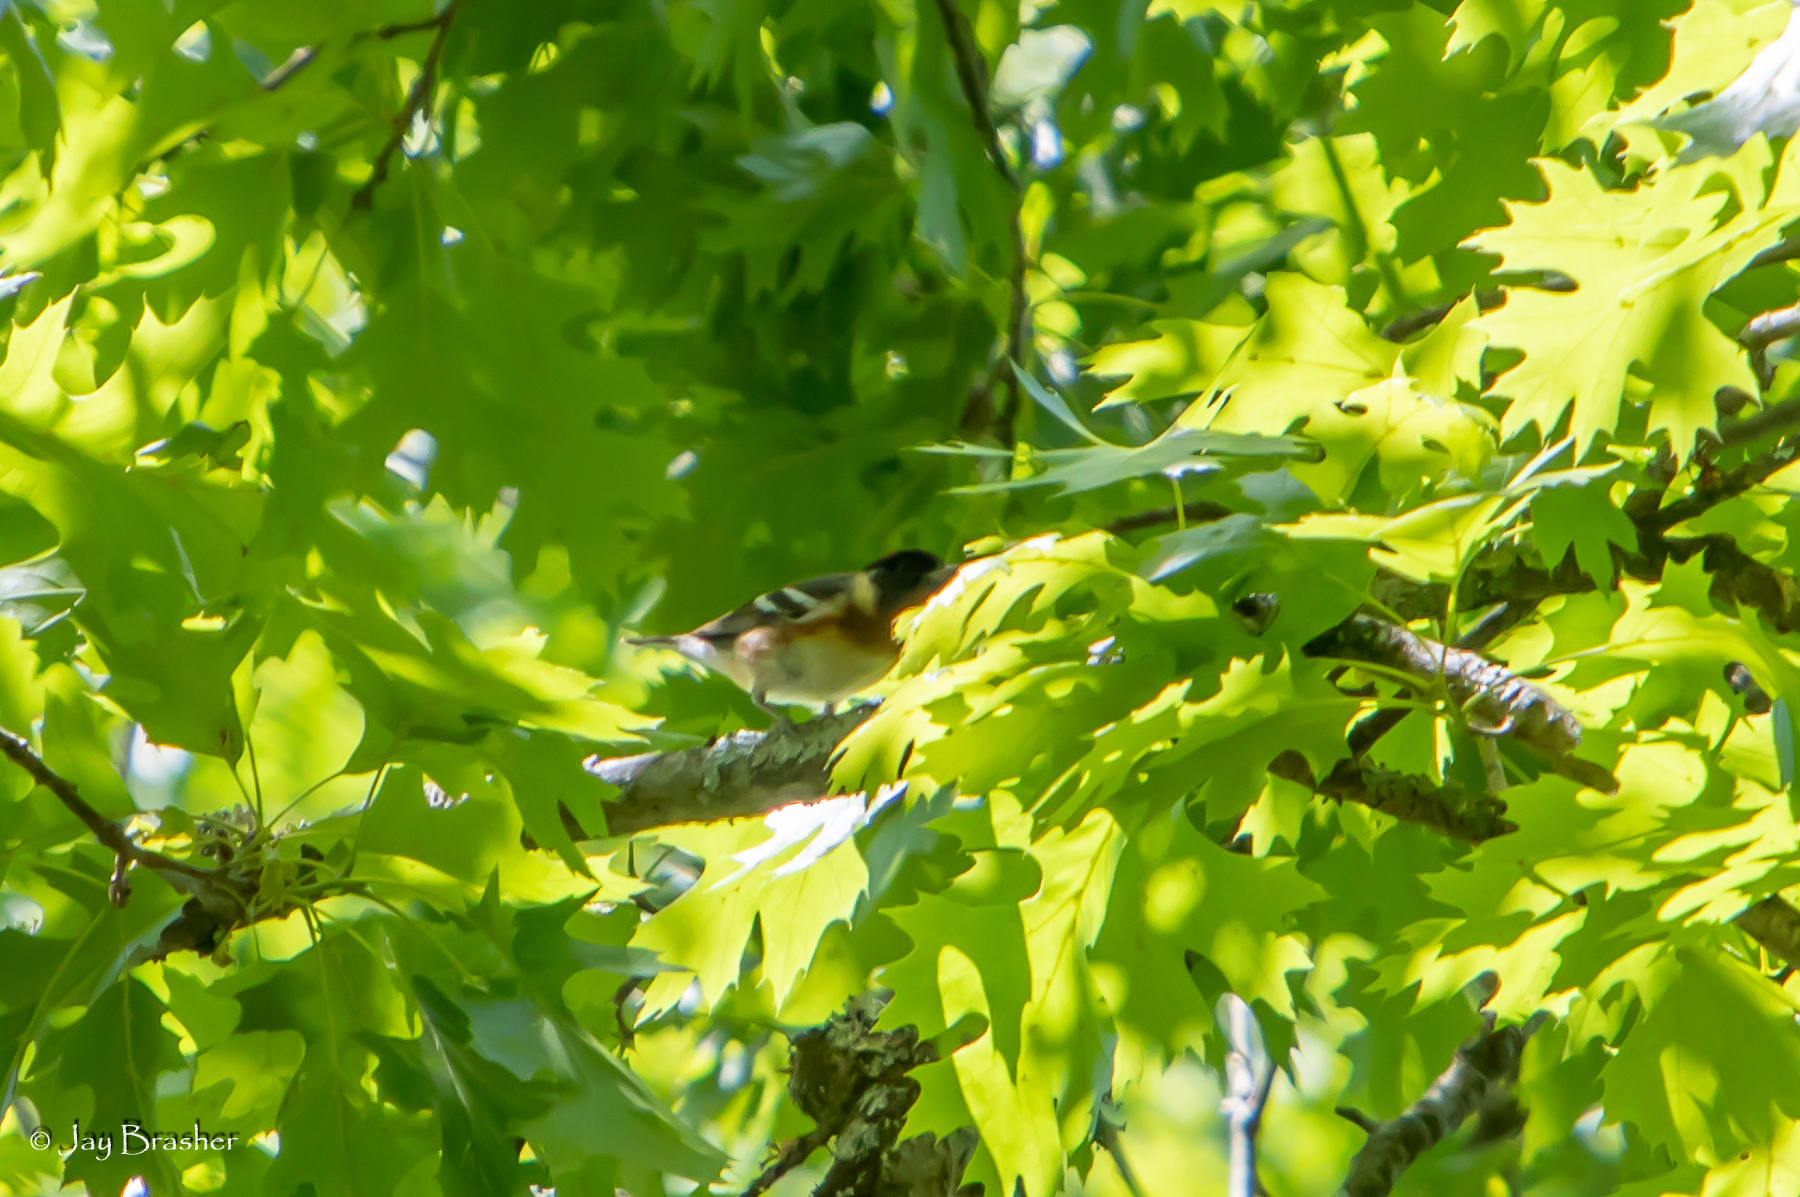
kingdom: Animalia
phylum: Chordata
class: Aves
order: Passeriformes
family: Parulidae
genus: Setophaga
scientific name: Setophaga castanea
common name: Bay-breasted warbler
